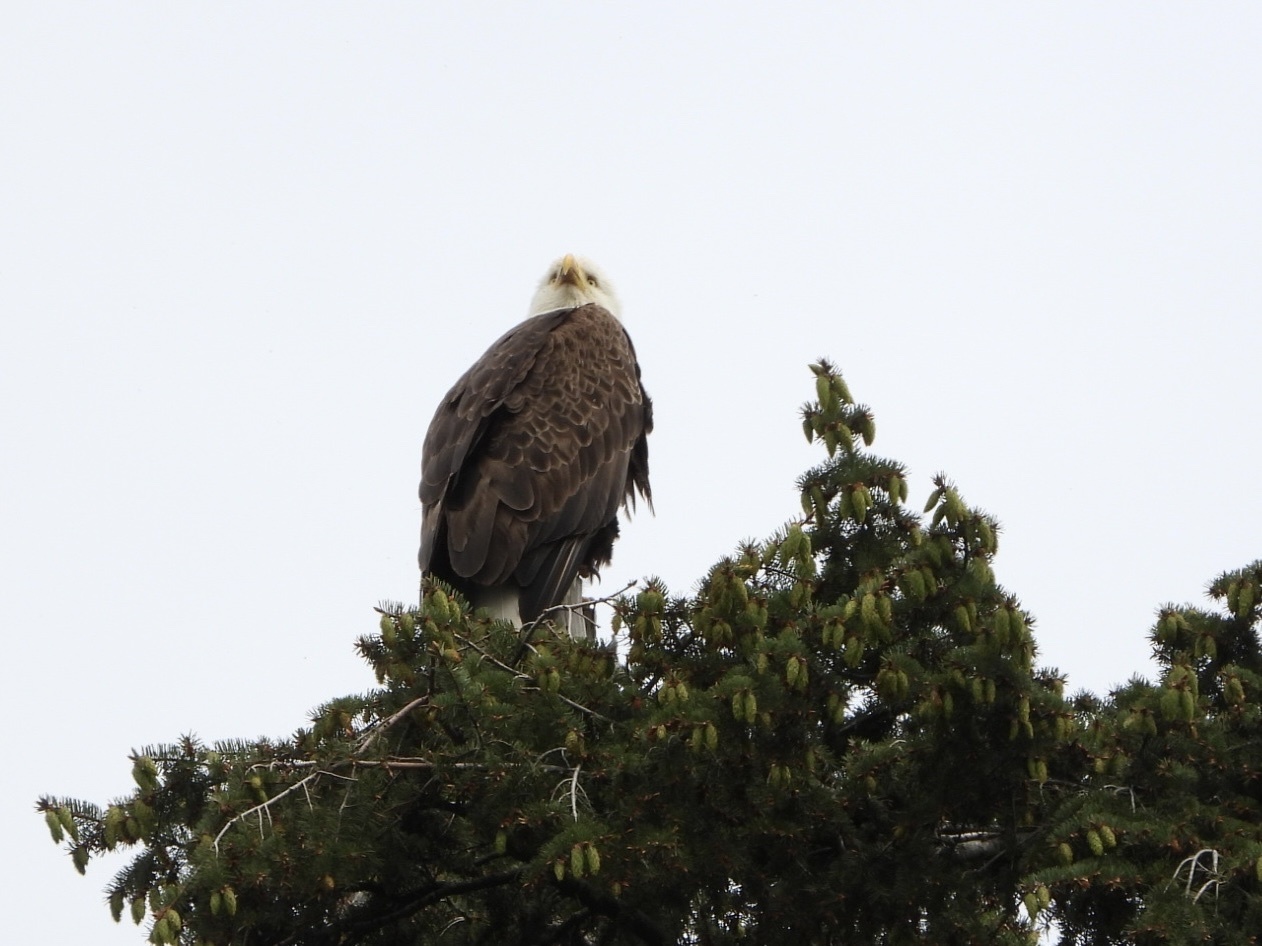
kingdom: Animalia
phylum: Chordata
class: Aves
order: Accipitriformes
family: Accipitridae
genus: Haliaeetus
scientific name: Haliaeetus leucocephalus
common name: Bald eagle
